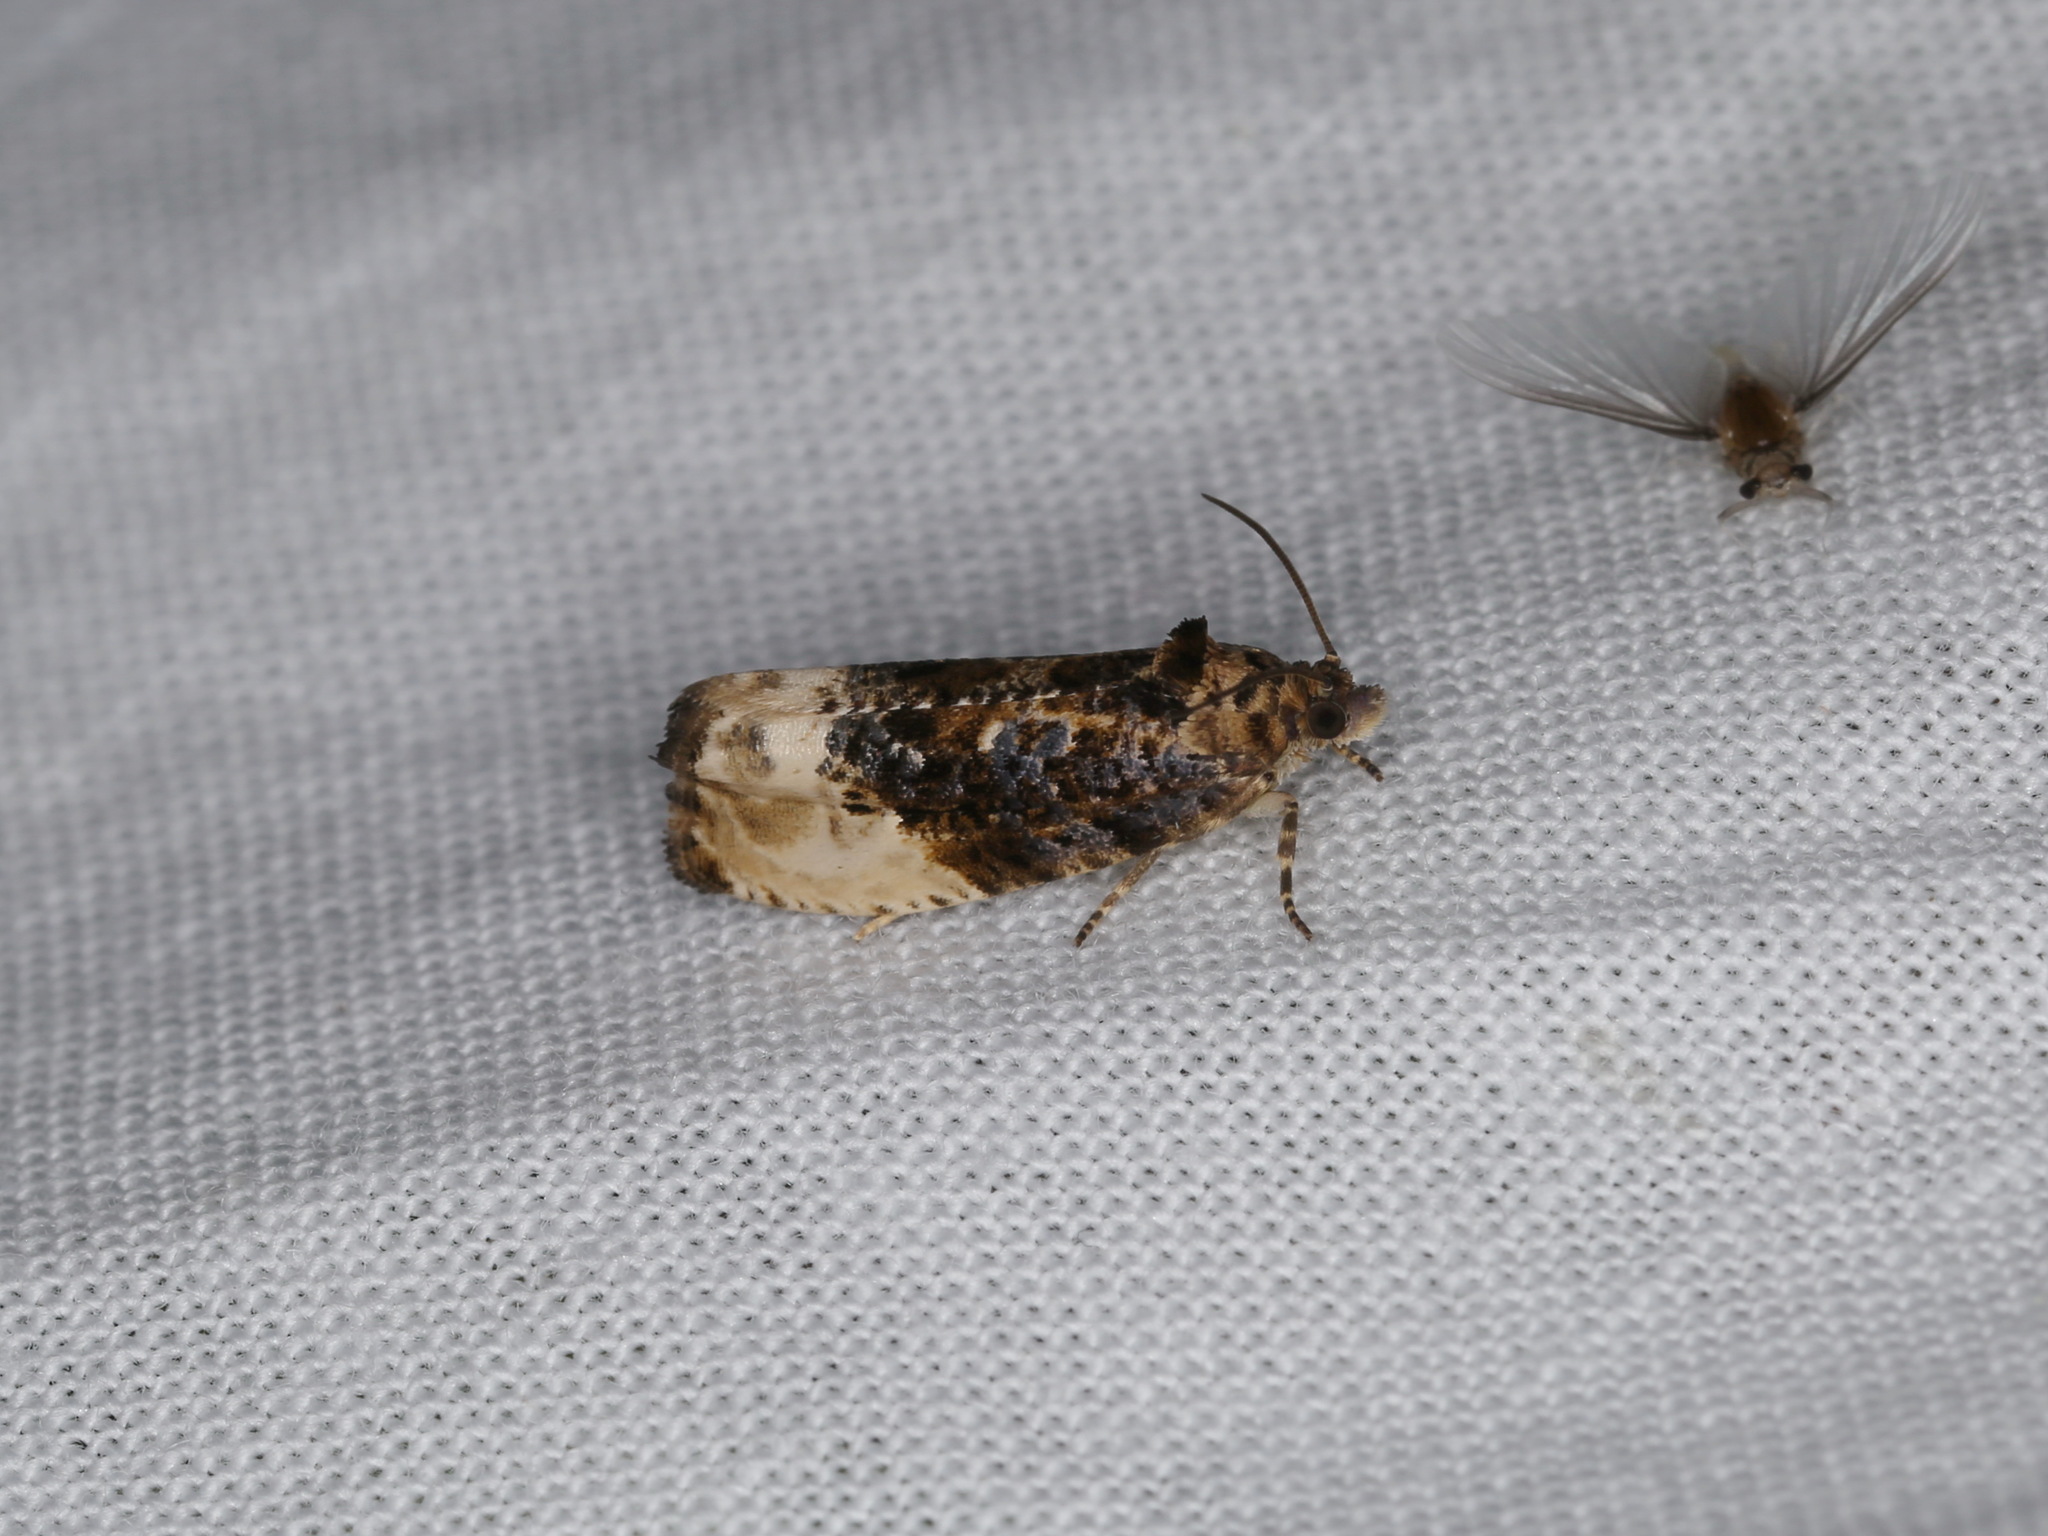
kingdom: Animalia
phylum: Arthropoda
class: Insecta
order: Lepidoptera
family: Tortricidae
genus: Hedya
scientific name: Hedya nubiferana
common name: Marbled orchard tortrix
